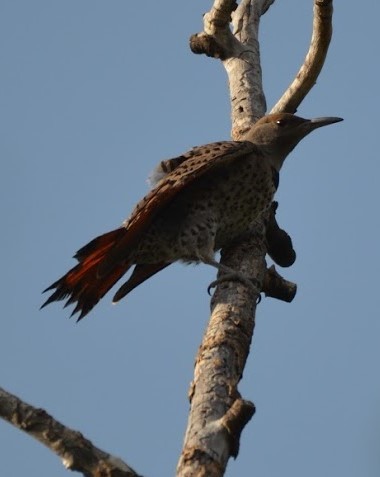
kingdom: Animalia
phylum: Chordata
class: Aves
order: Piciformes
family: Picidae
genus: Colaptes
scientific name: Colaptes auratus
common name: Northern flicker
